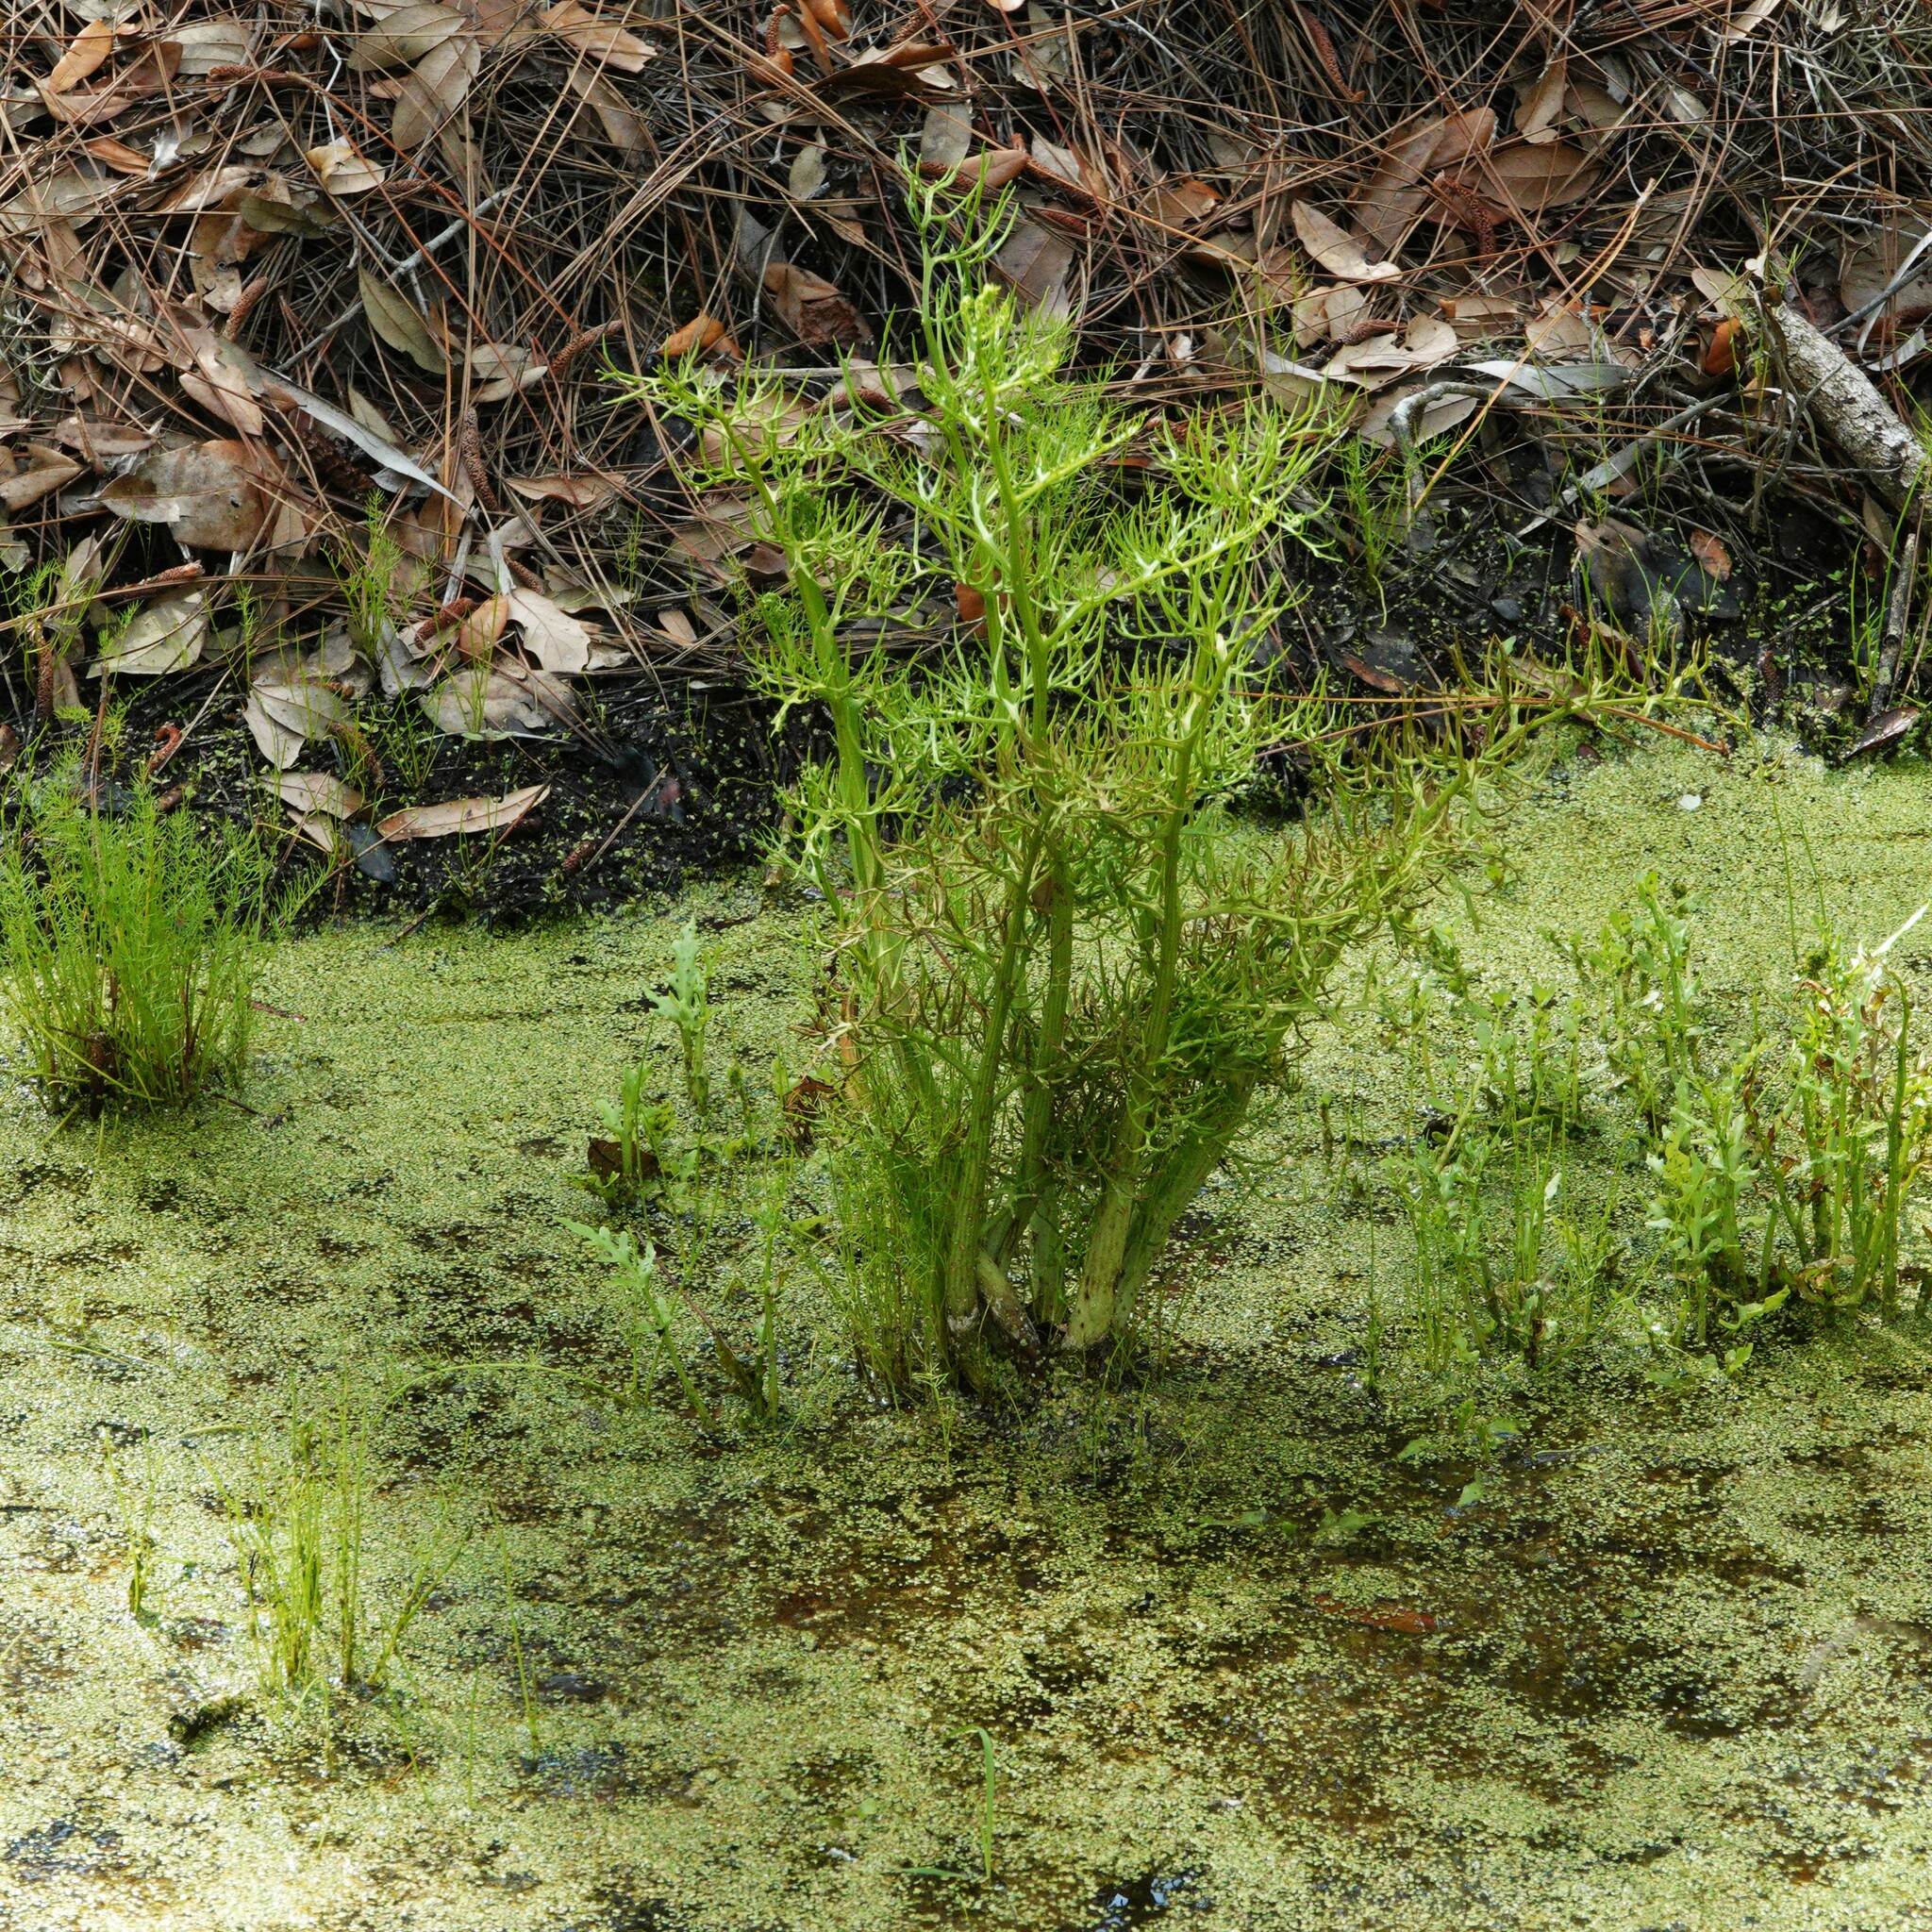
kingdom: Plantae
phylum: Tracheophyta
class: Polypodiopsida
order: Polypodiales
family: Pteridaceae
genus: Ceratopteris
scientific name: Ceratopteris thalictroides
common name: Water fern
